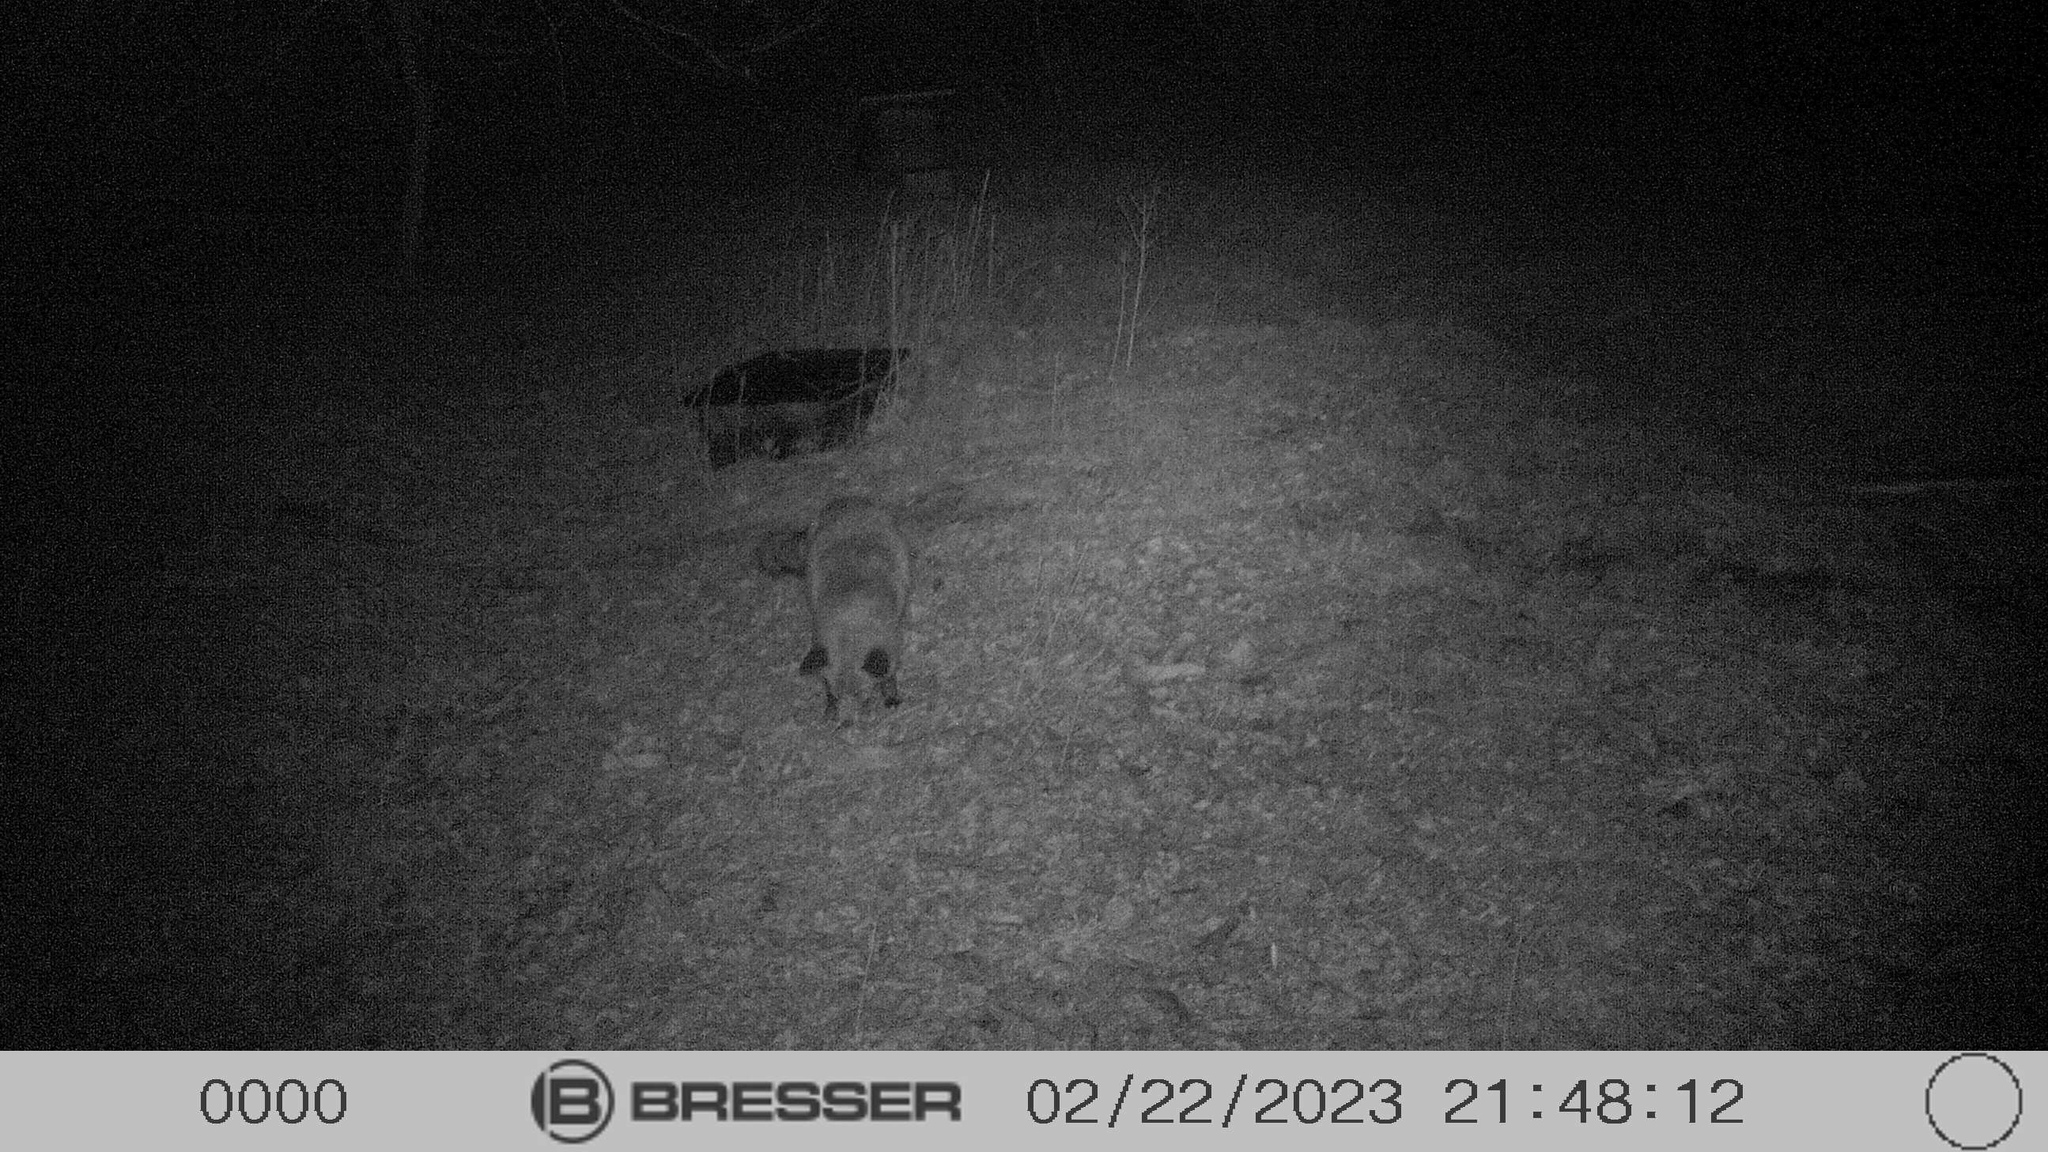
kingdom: Animalia
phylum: Chordata
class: Mammalia
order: Carnivora
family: Canidae
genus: Vulpes
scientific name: Vulpes vulpes
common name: Red fox
